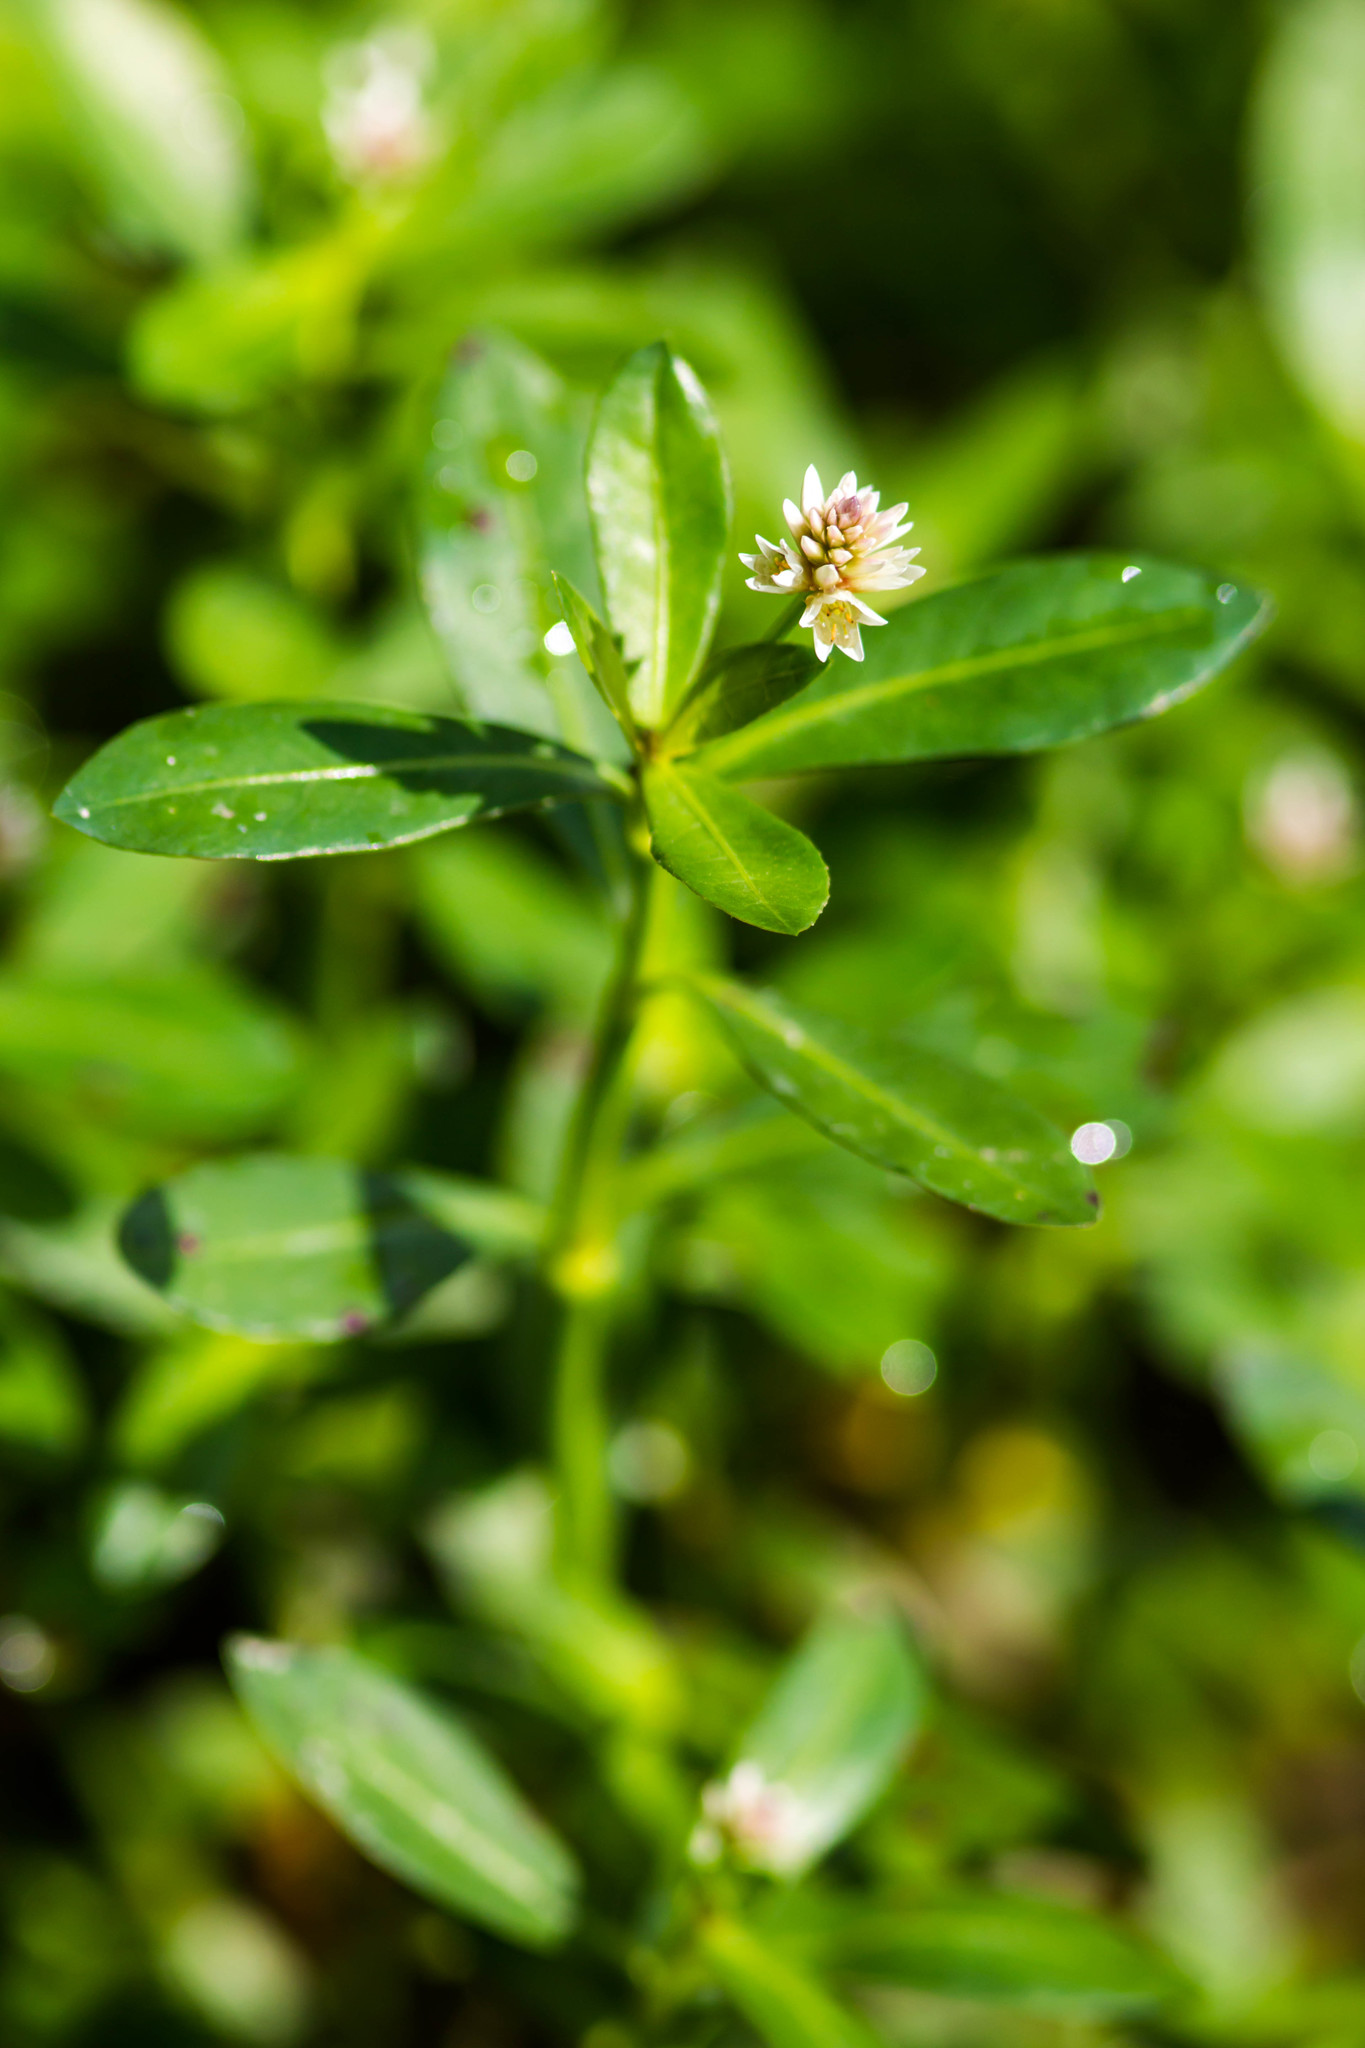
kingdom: Plantae
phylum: Tracheophyta
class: Magnoliopsida
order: Caryophyllales
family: Amaranthaceae
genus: Alternanthera
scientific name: Alternanthera philoxeroides
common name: Alligatorweed
